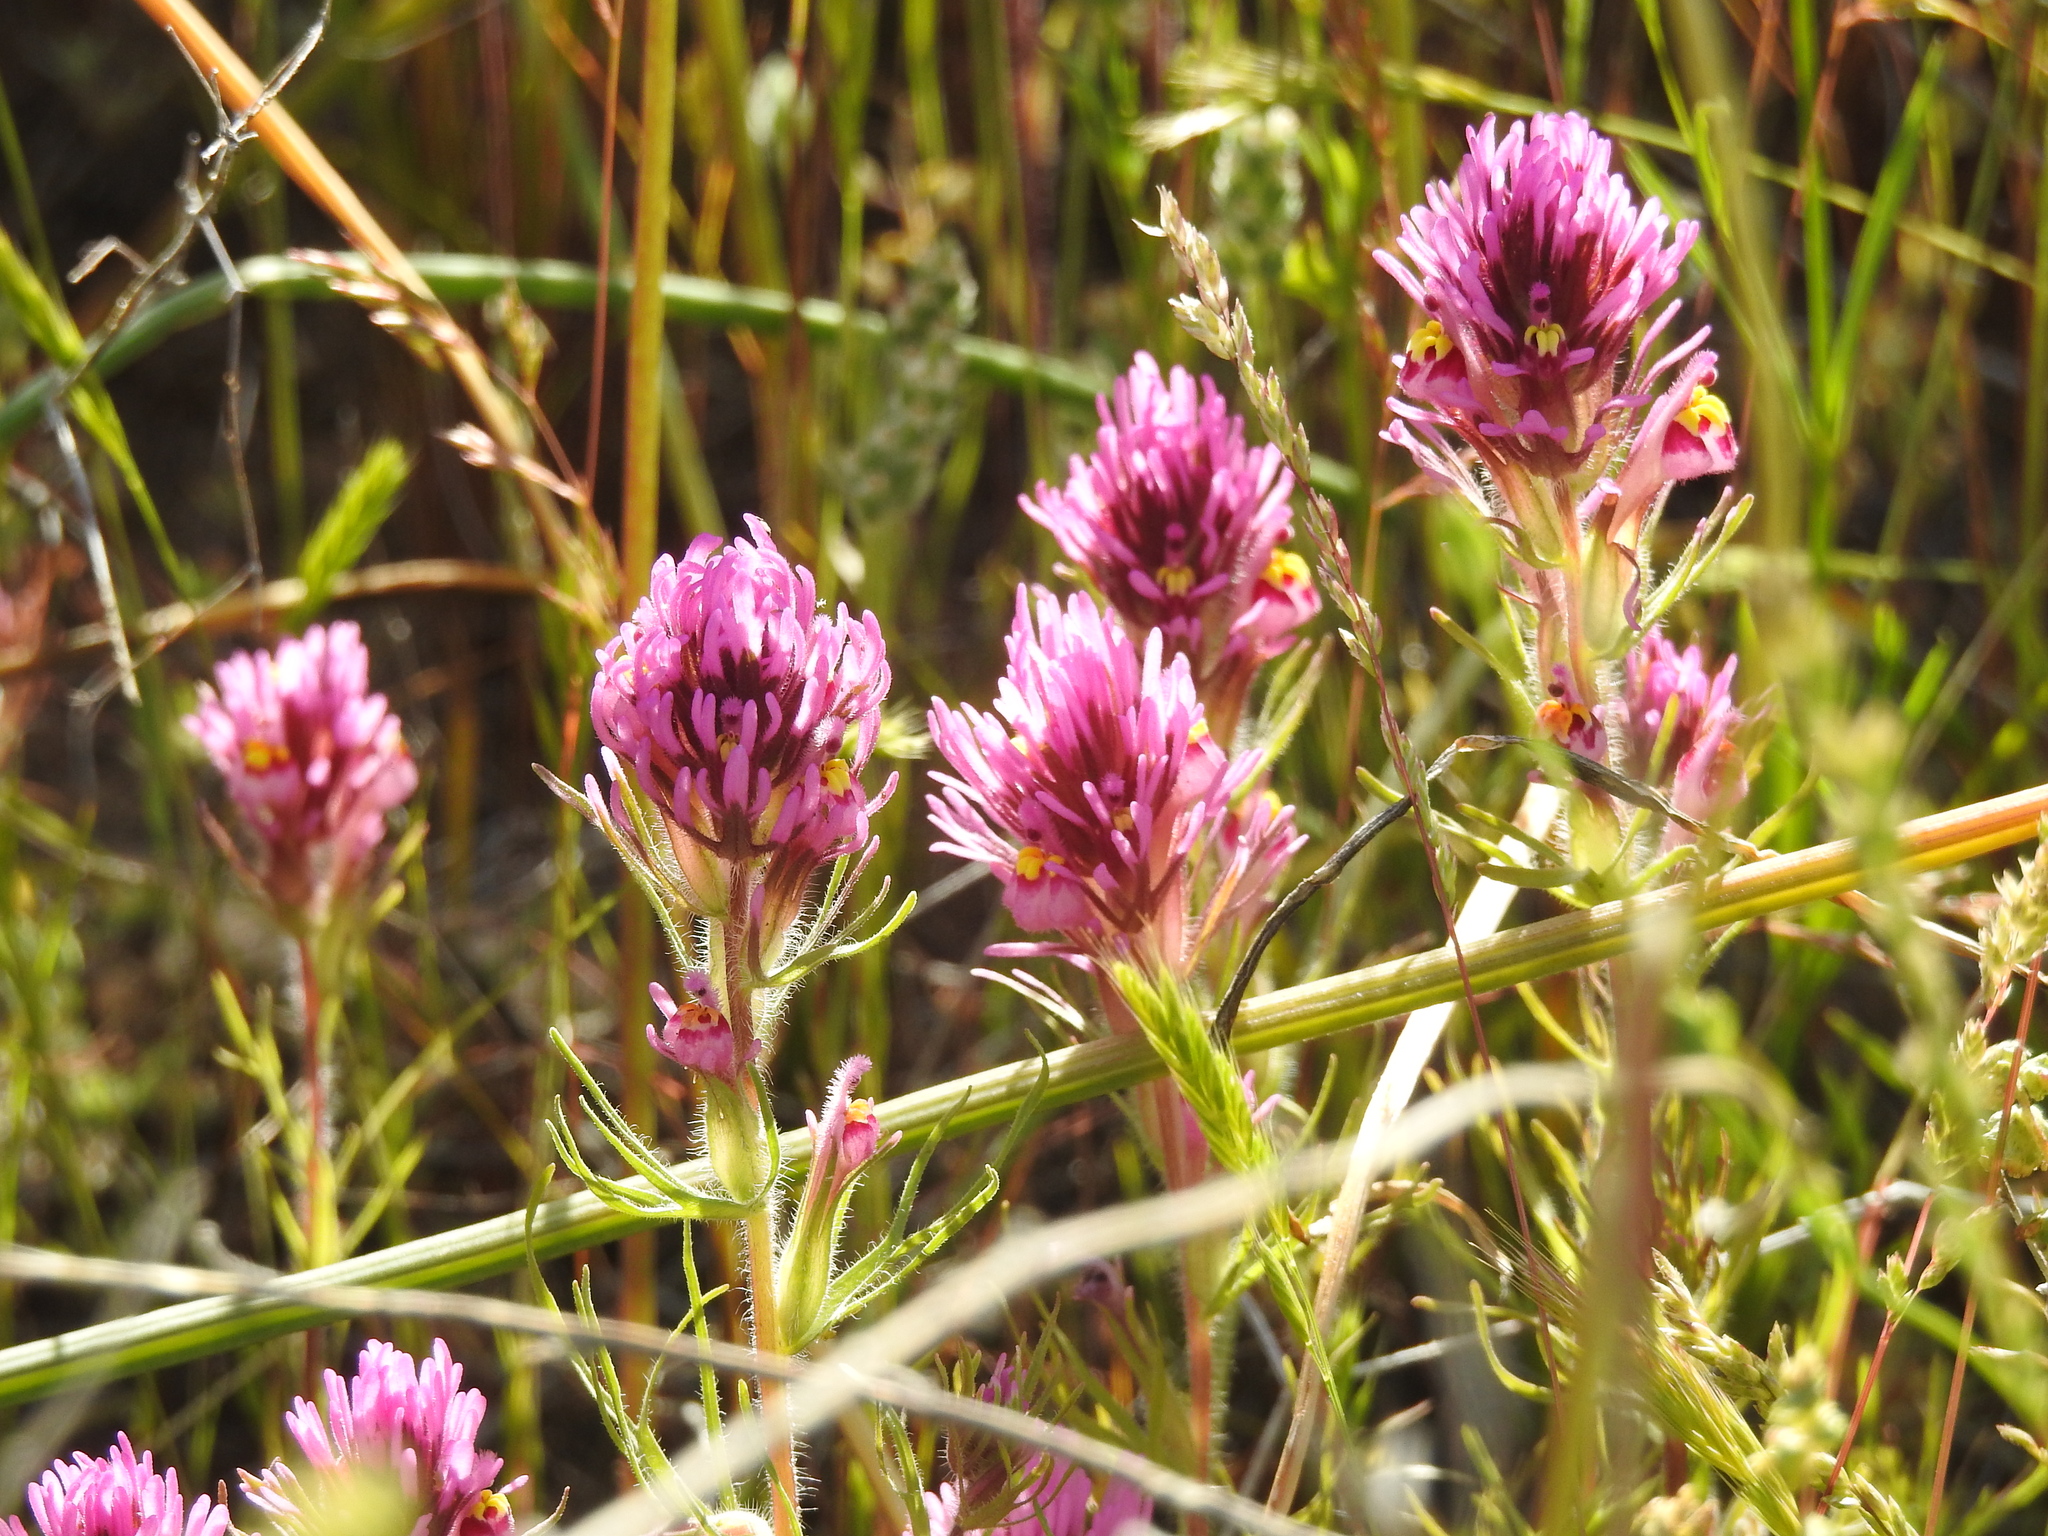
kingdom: Plantae
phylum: Tracheophyta
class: Magnoliopsida
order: Lamiales
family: Orobanchaceae
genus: Castilleja
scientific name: Castilleja exserta
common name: Purple owl-clover
